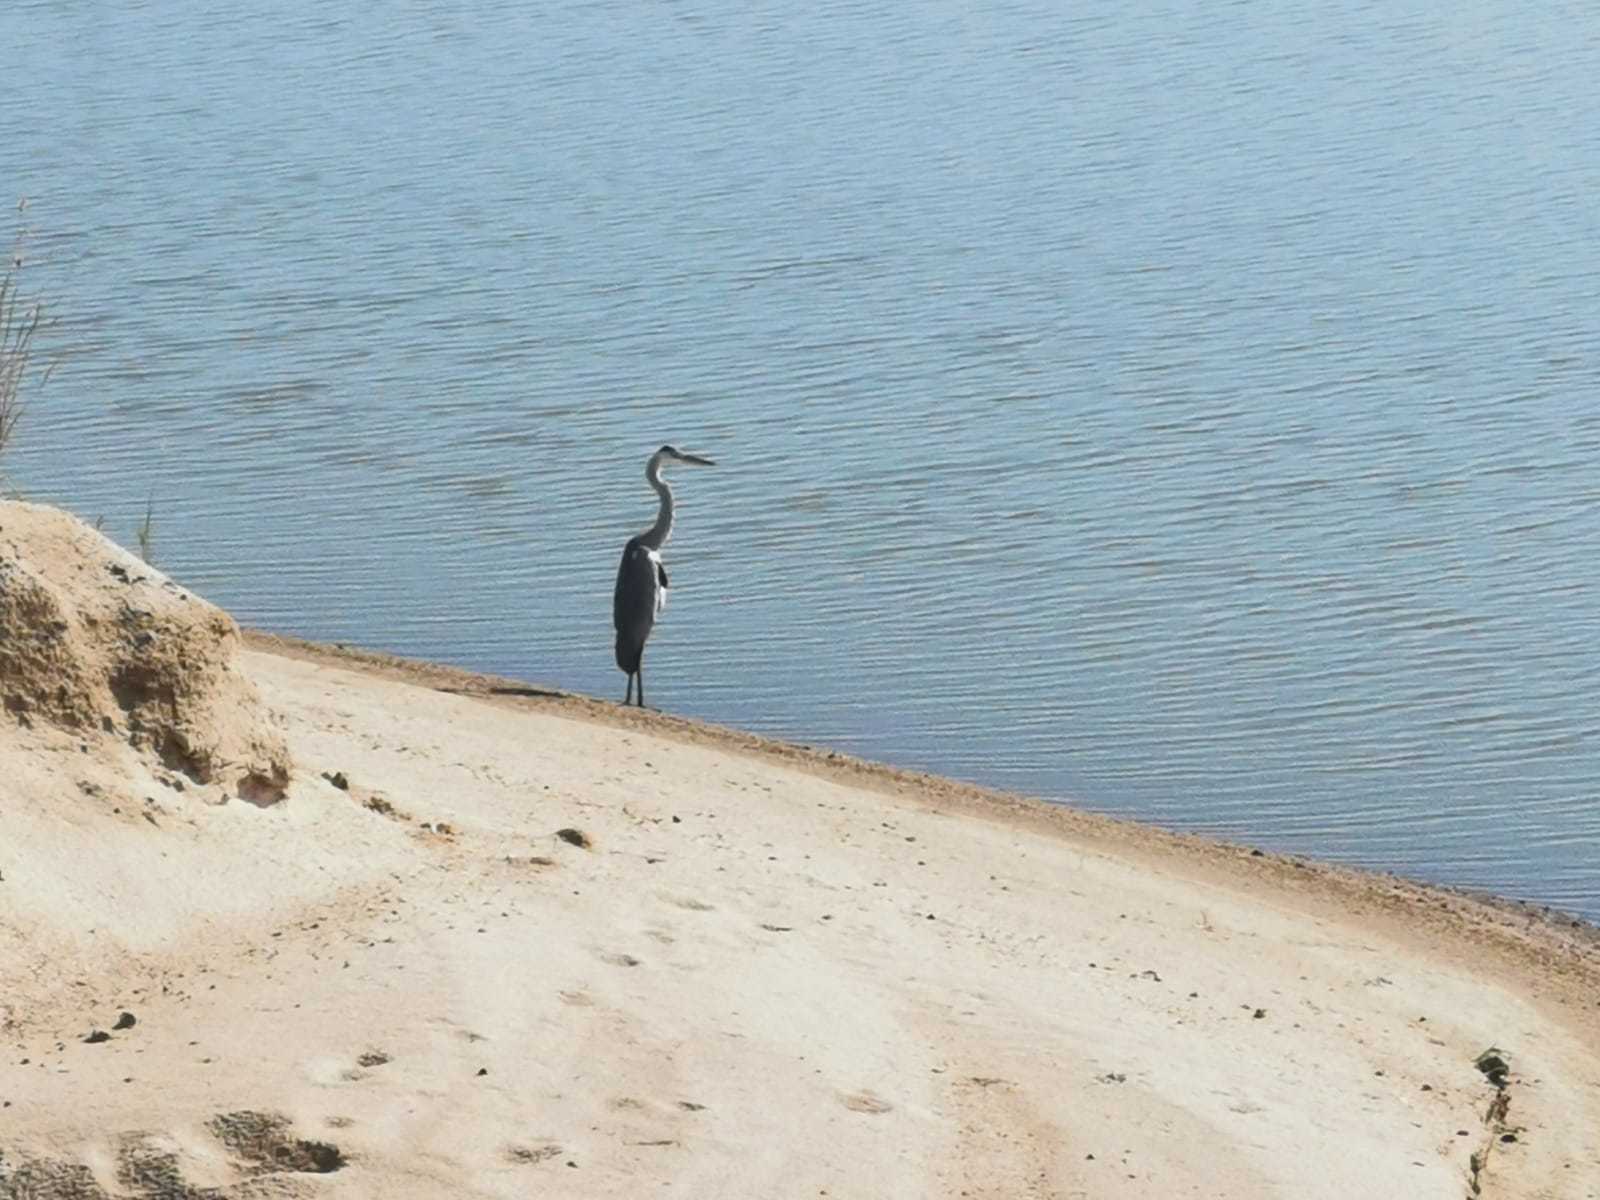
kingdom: Animalia
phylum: Chordata
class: Aves
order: Pelecaniformes
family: Ardeidae
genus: Ardea
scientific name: Ardea cinerea
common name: Grey heron
